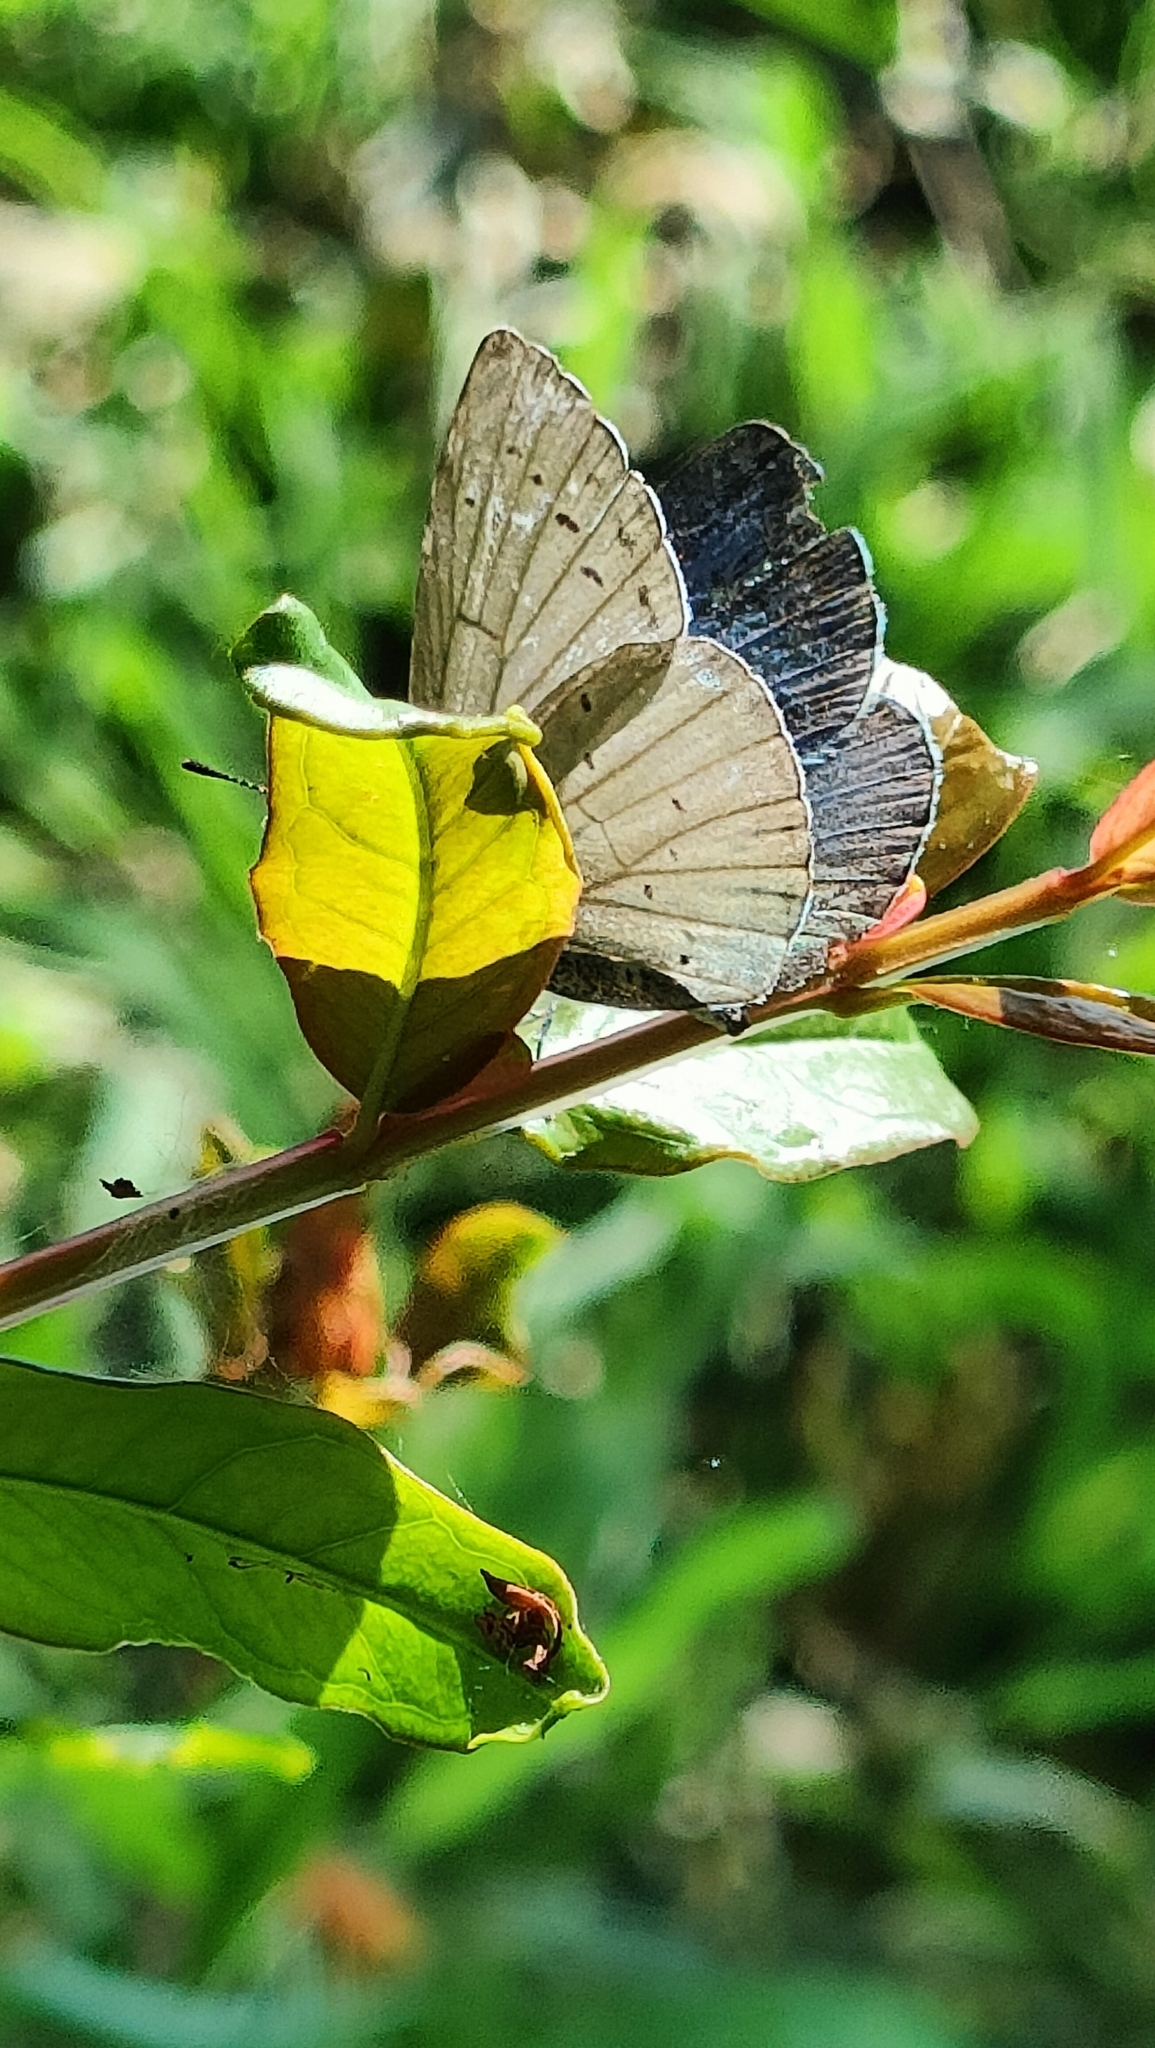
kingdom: Animalia
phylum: Arthropoda
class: Insecta
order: Lepidoptera
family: Lycaenidae
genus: Celastrina
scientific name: Celastrina argiolus
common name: Holly blue
